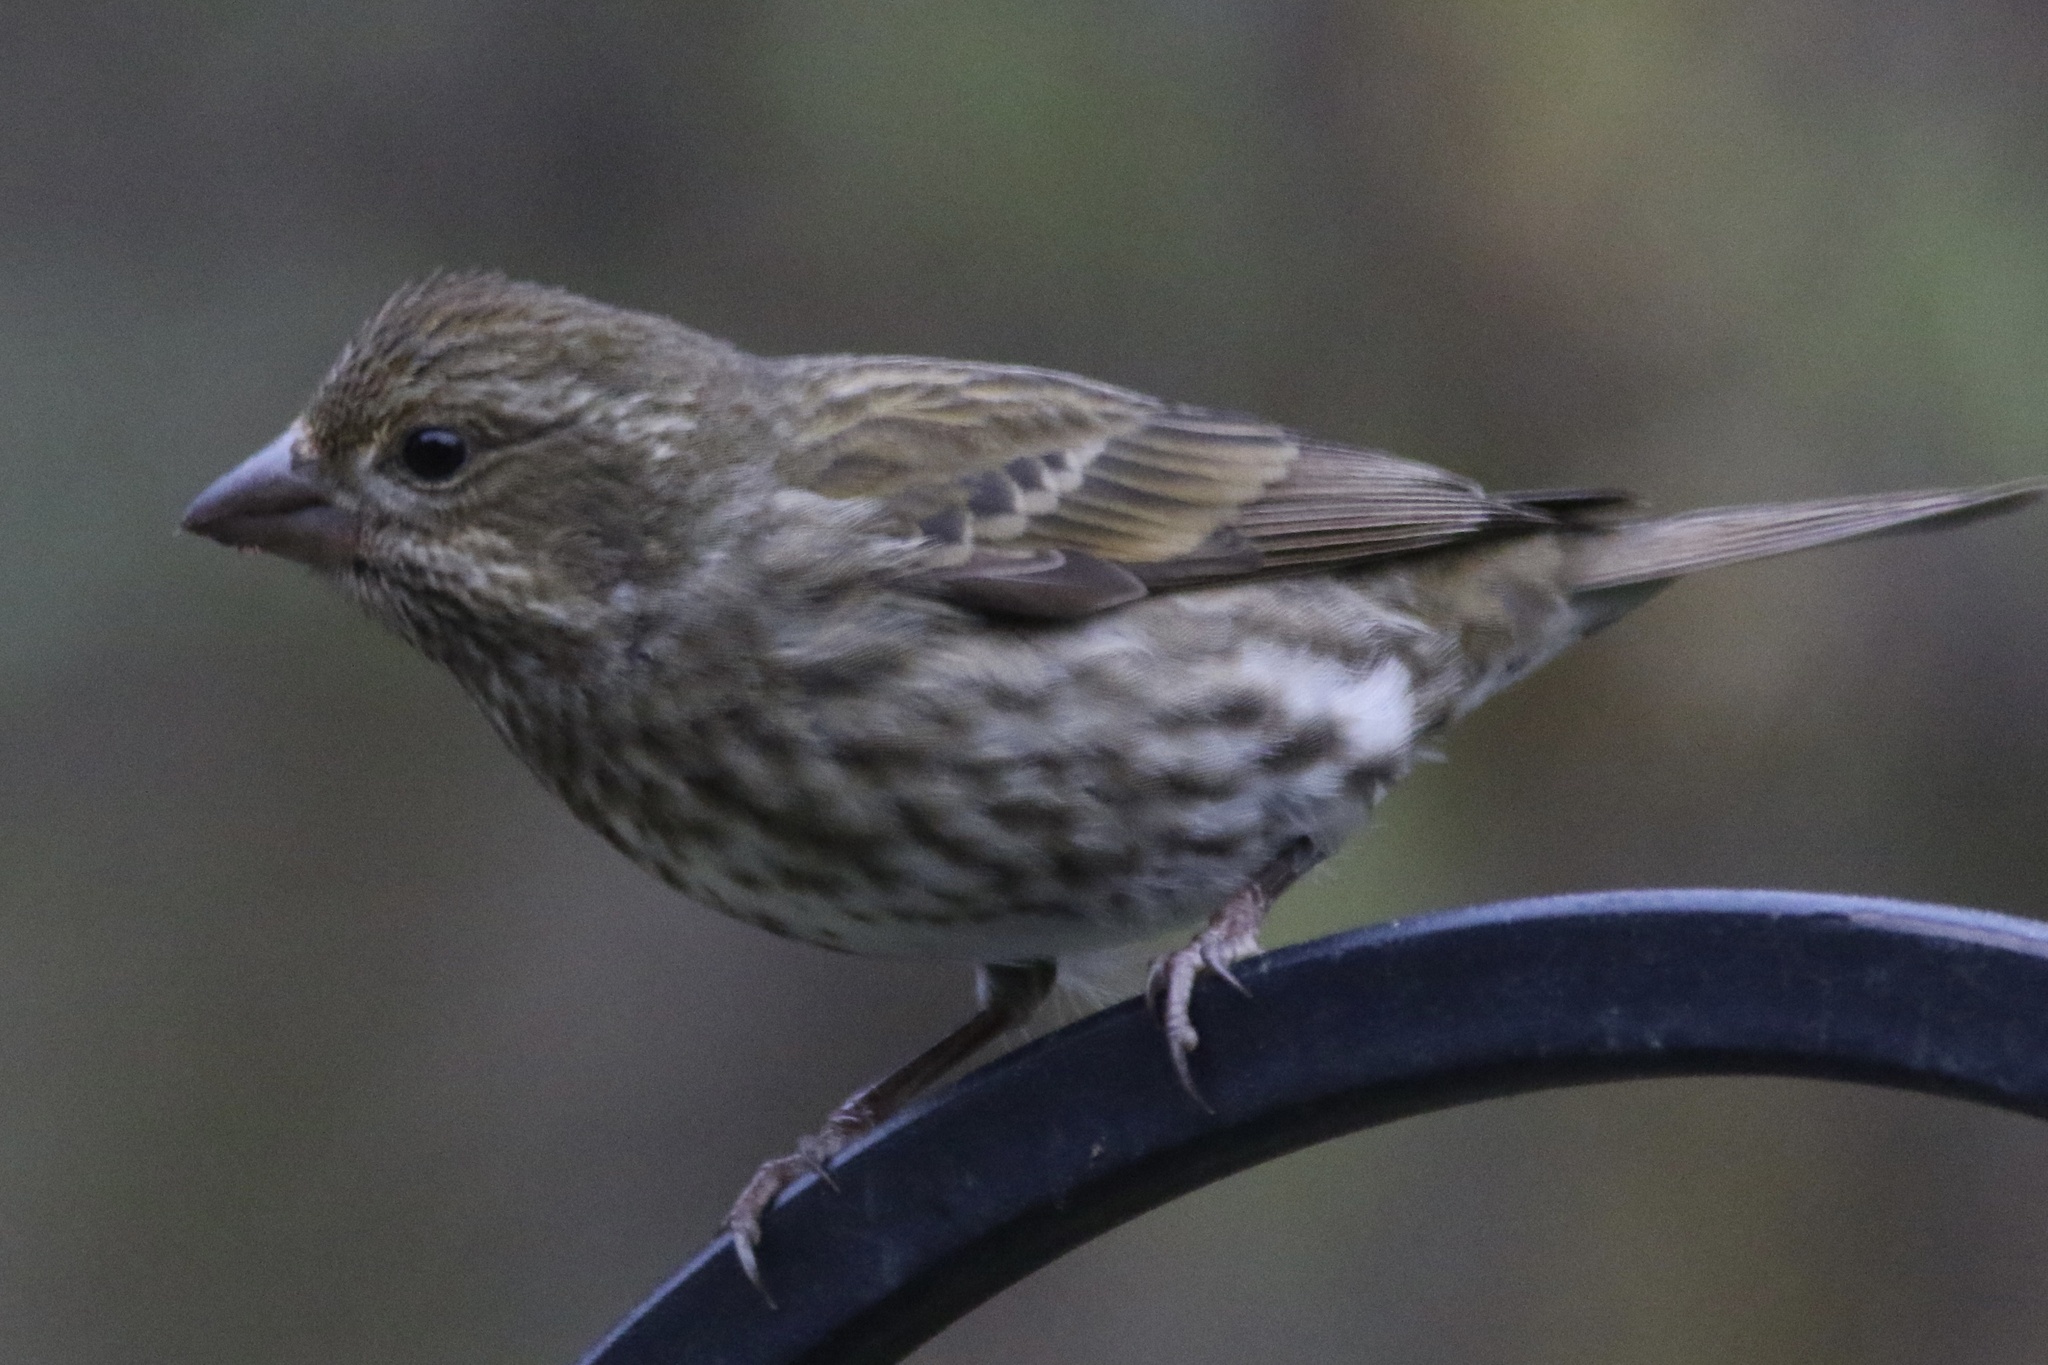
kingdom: Animalia
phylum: Chordata
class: Aves
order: Passeriformes
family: Fringillidae
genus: Haemorhous
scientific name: Haemorhous purpureus
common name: Purple finch
